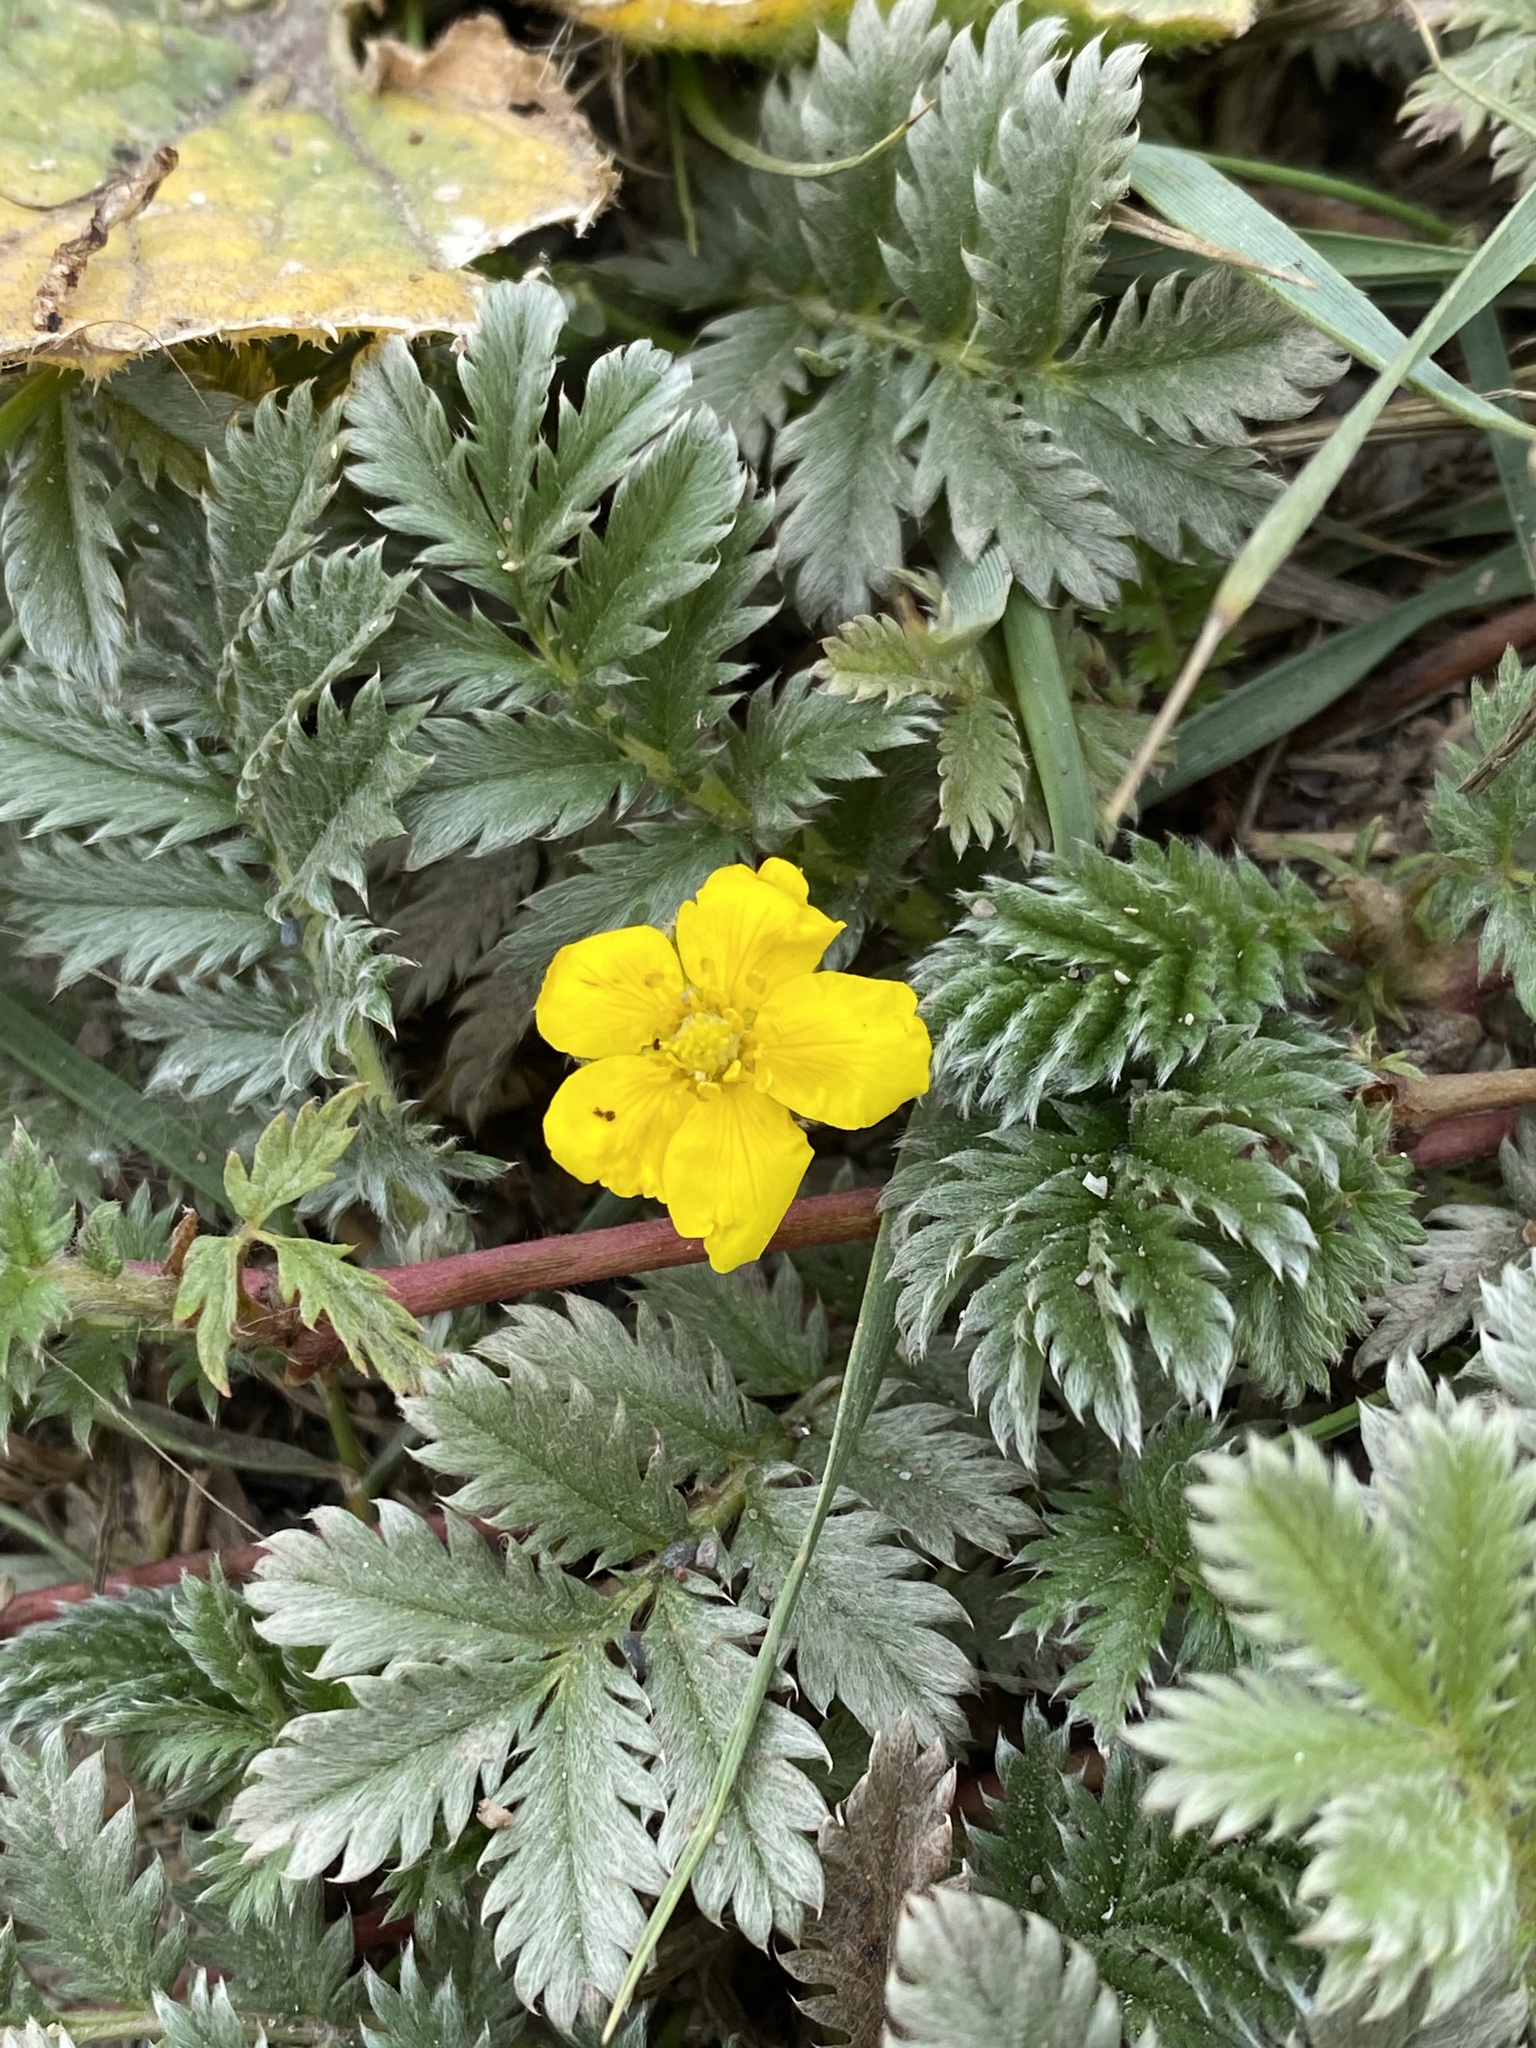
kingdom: Plantae
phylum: Tracheophyta
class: Magnoliopsida
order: Rosales
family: Rosaceae
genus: Argentina
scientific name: Argentina anserina
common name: Common silverweed
